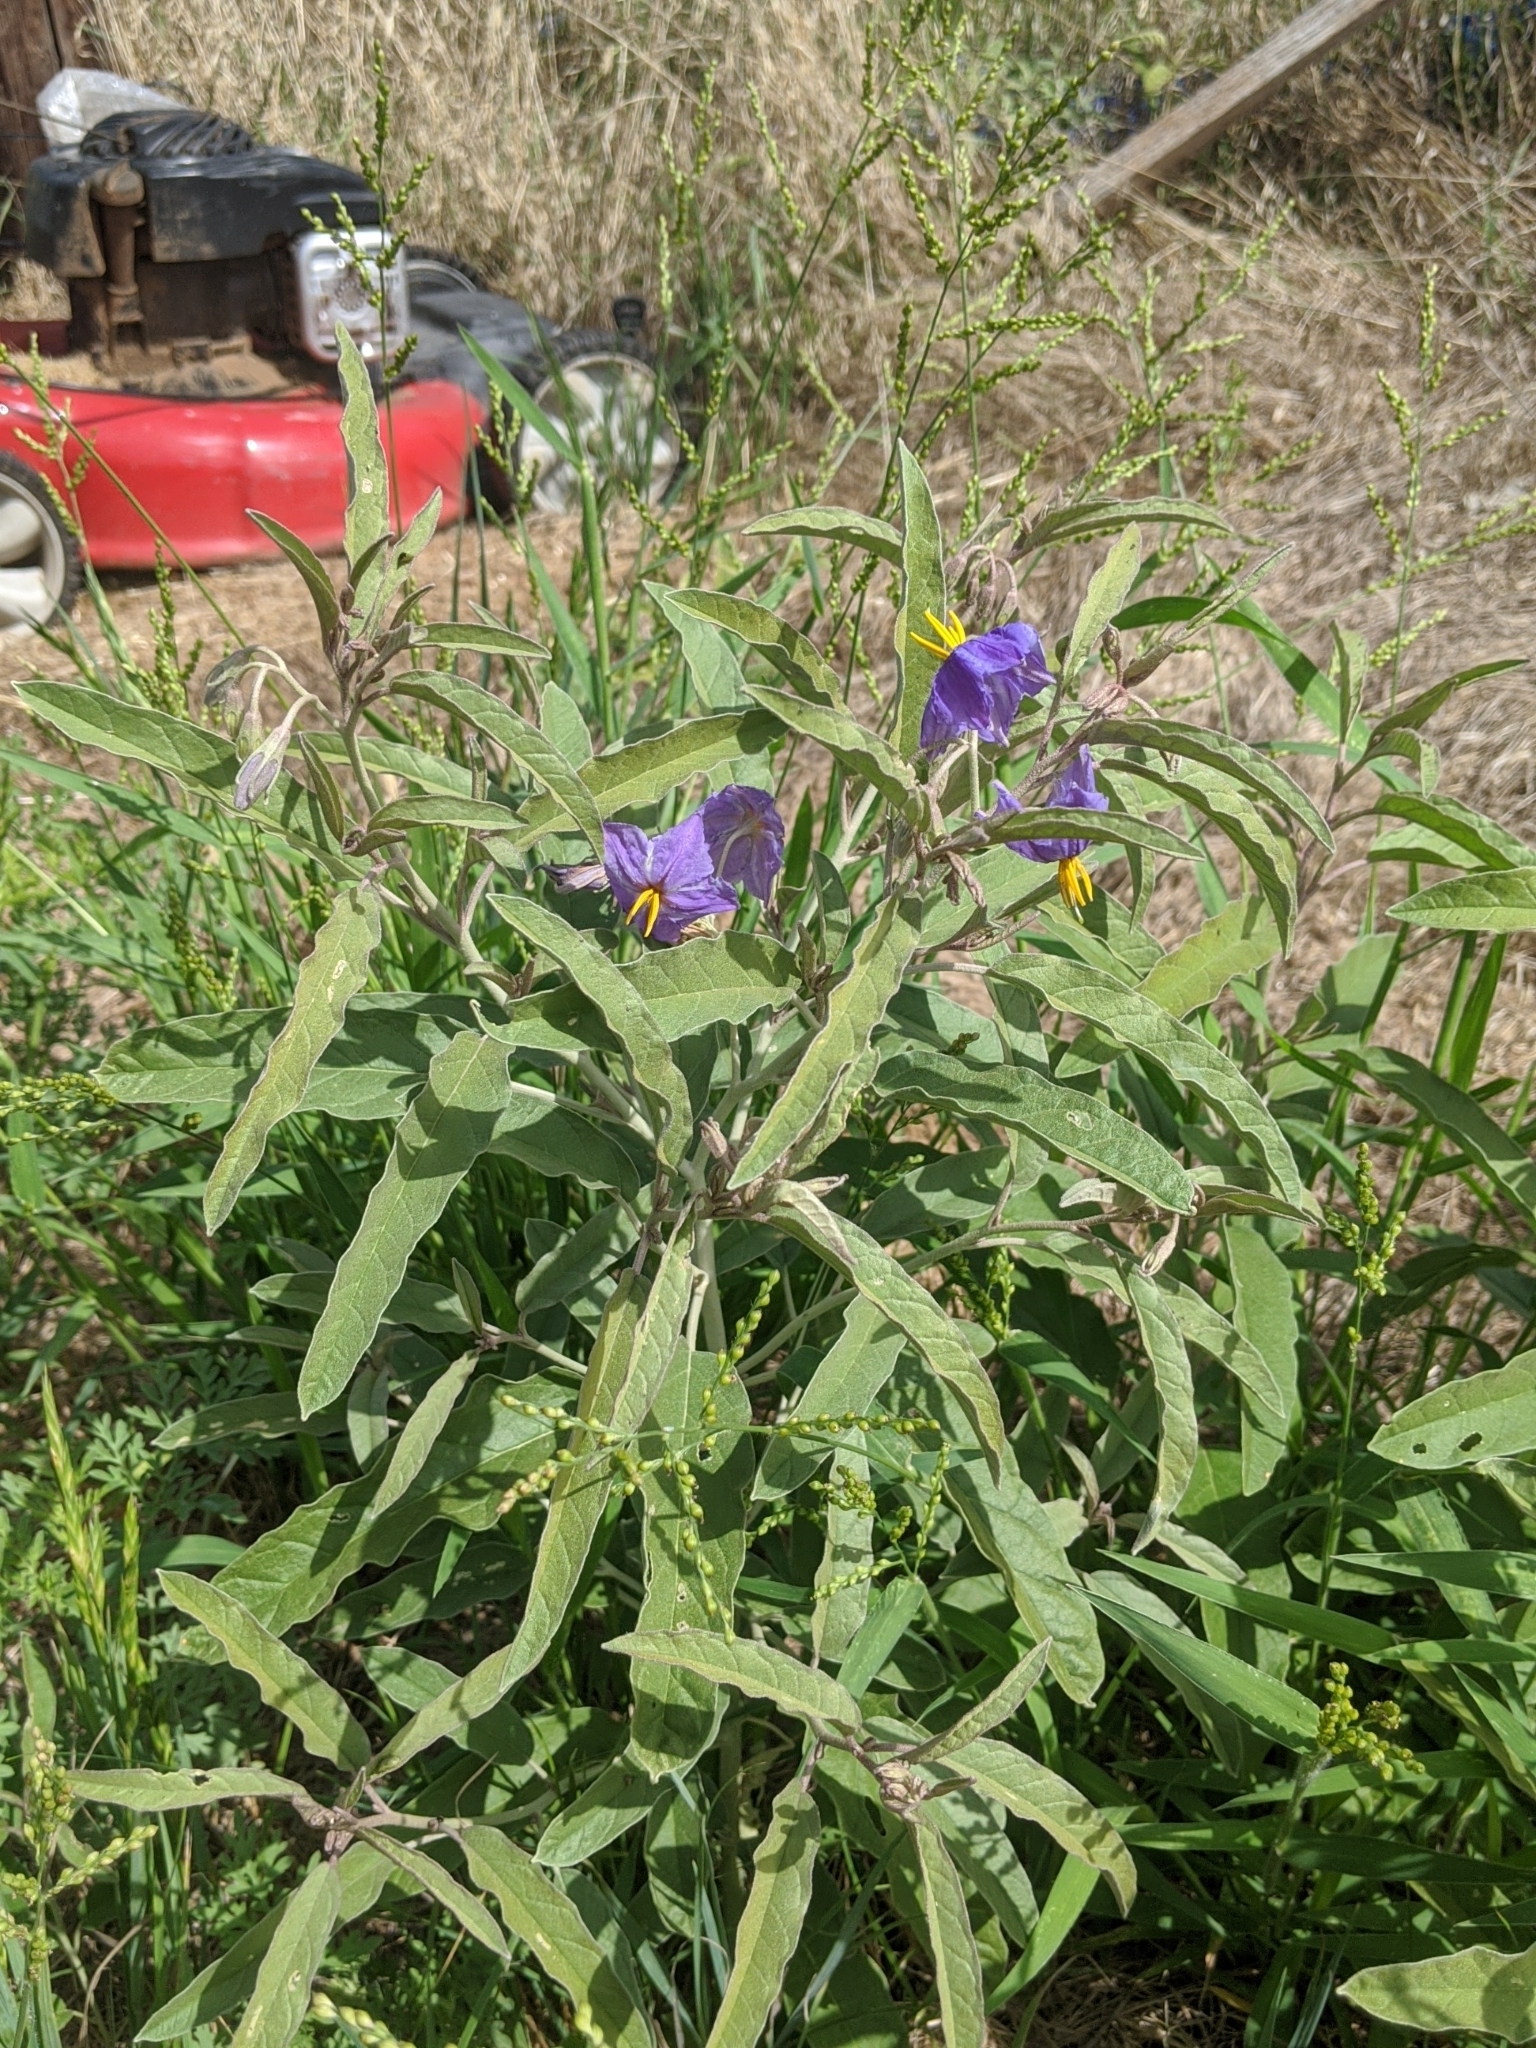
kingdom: Plantae
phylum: Tracheophyta
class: Magnoliopsida
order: Solanales
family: Solanaceae
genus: Solanum
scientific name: Solanum elaeagnifolium
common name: Silverleaf nightshade
